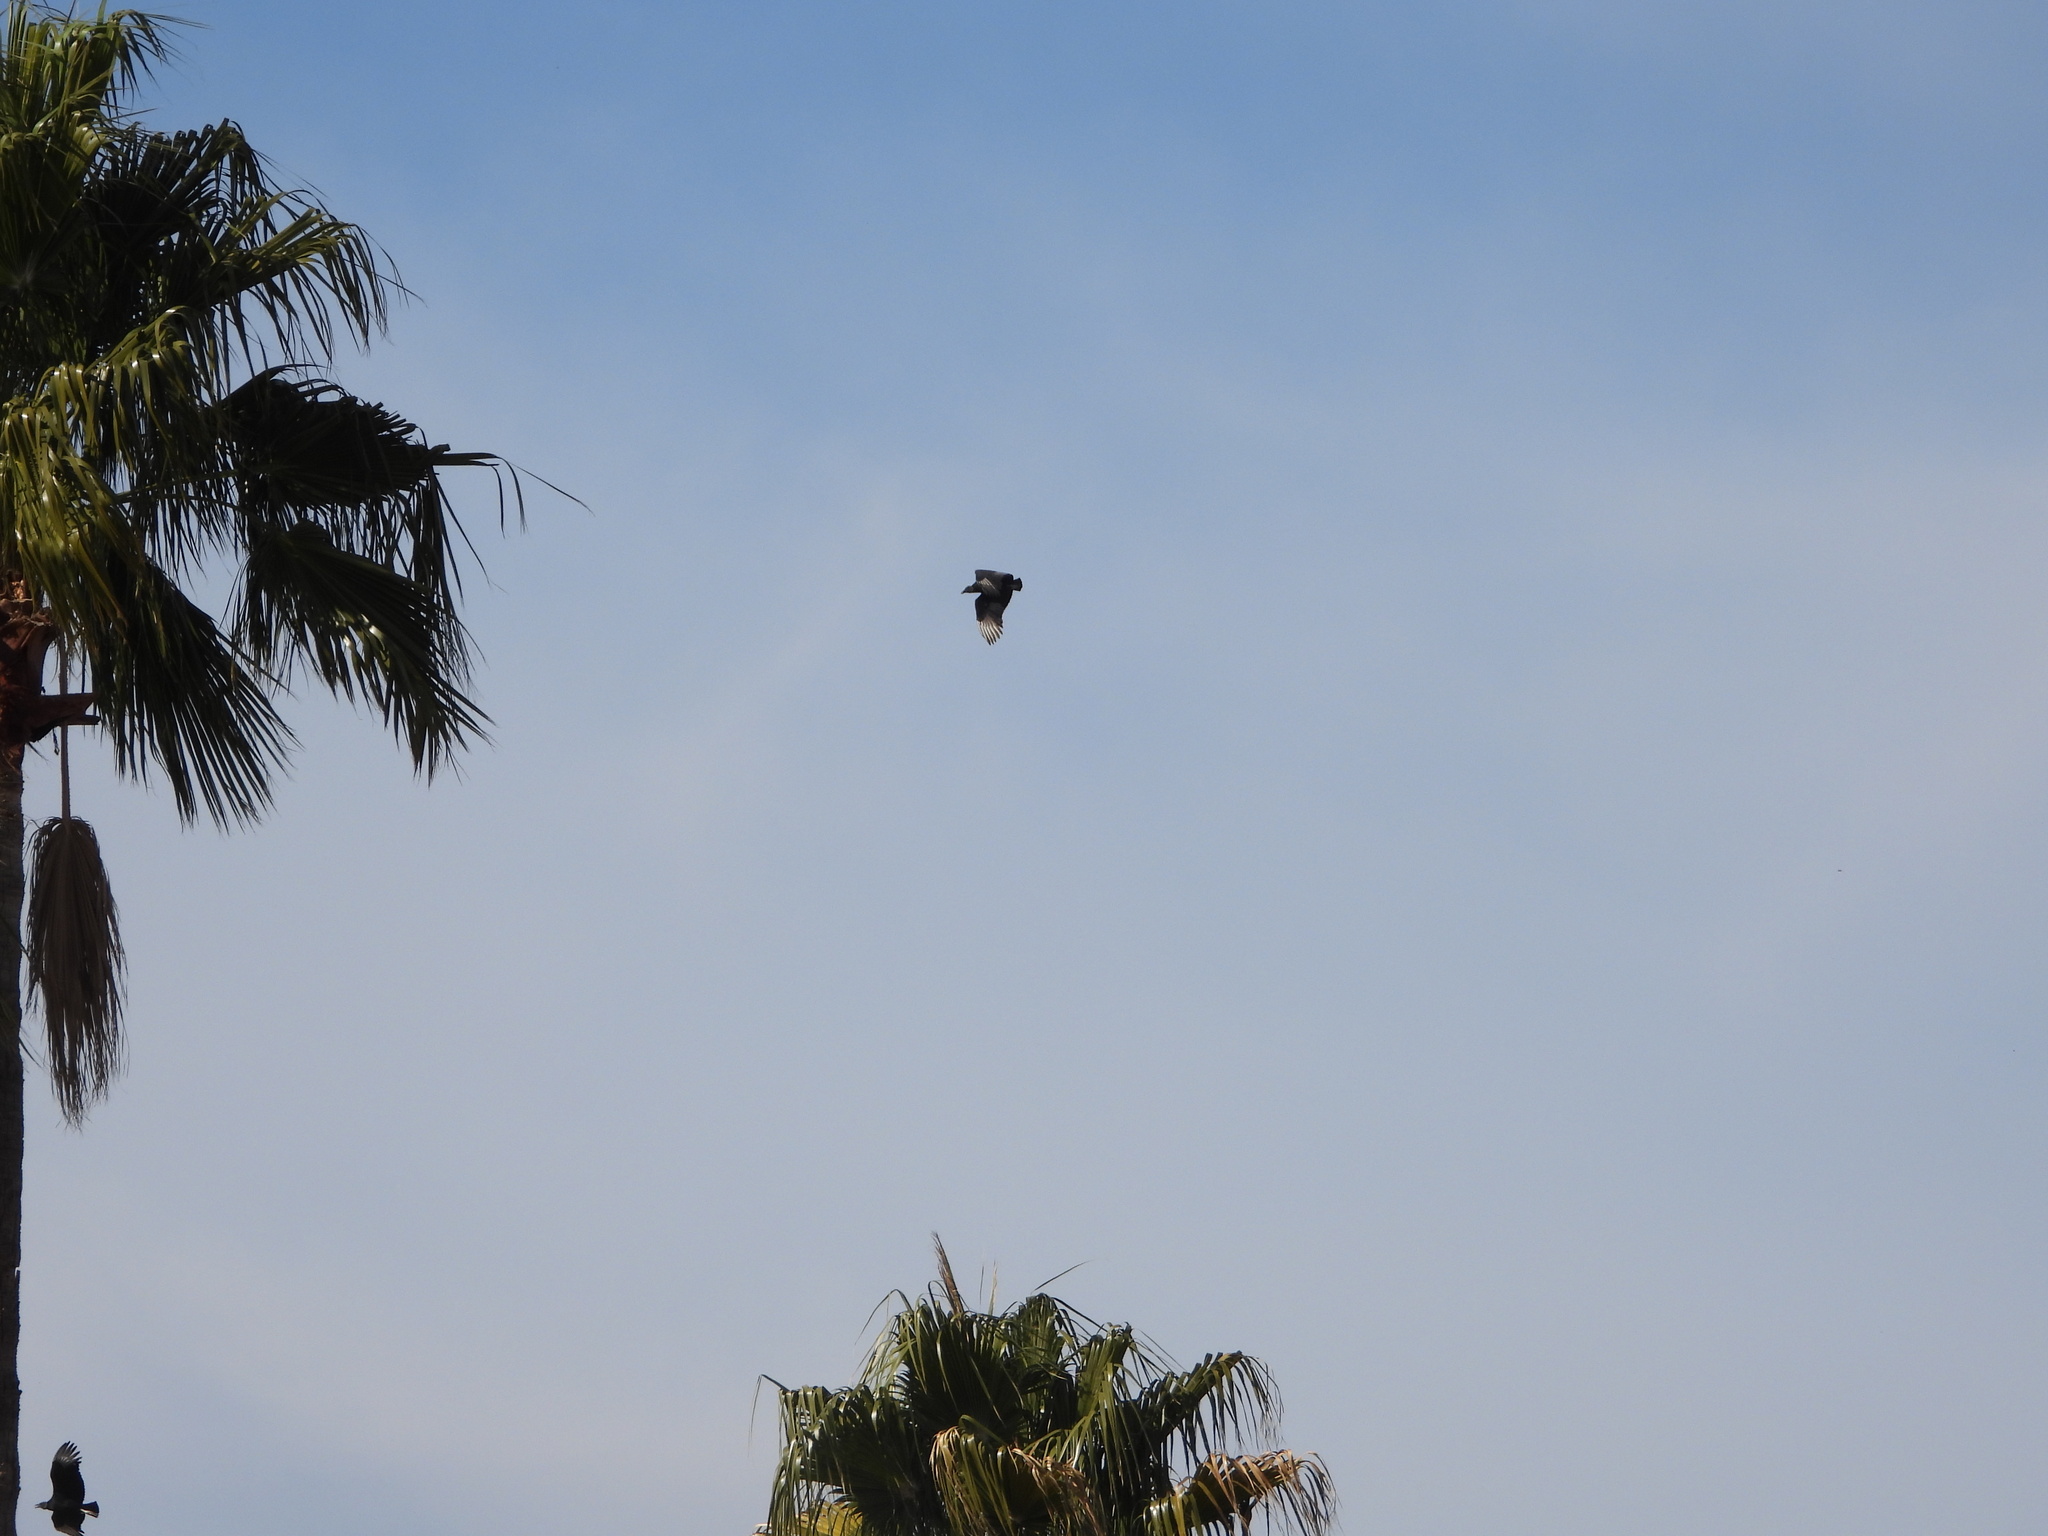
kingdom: Animalia
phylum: Chordata
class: Aves
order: Accipitriformes
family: Cathartidae
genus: Coragyps
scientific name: Coragyps atratus
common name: Black vulture
